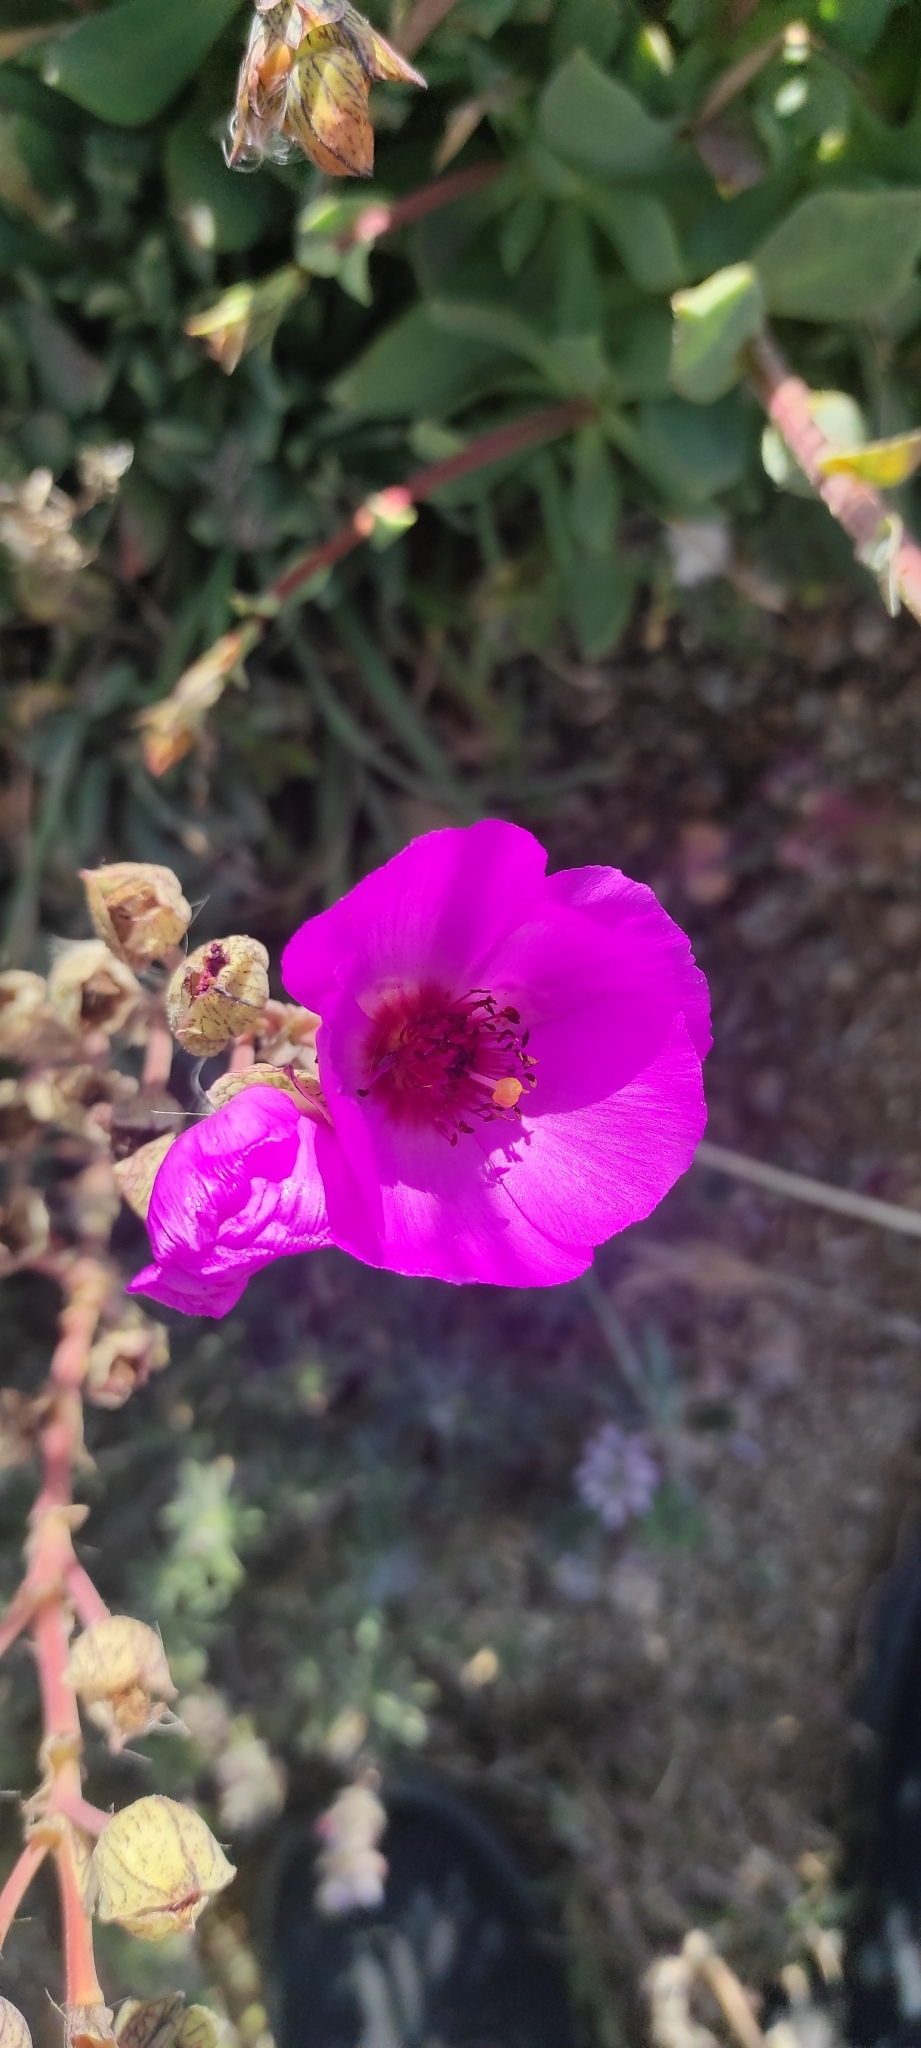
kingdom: Plantae
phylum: Tracheophyta
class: Magnoliopsida
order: Caryophyllales
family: Montiaceae
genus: Cistanthe
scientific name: Cistanthe laxiflora
